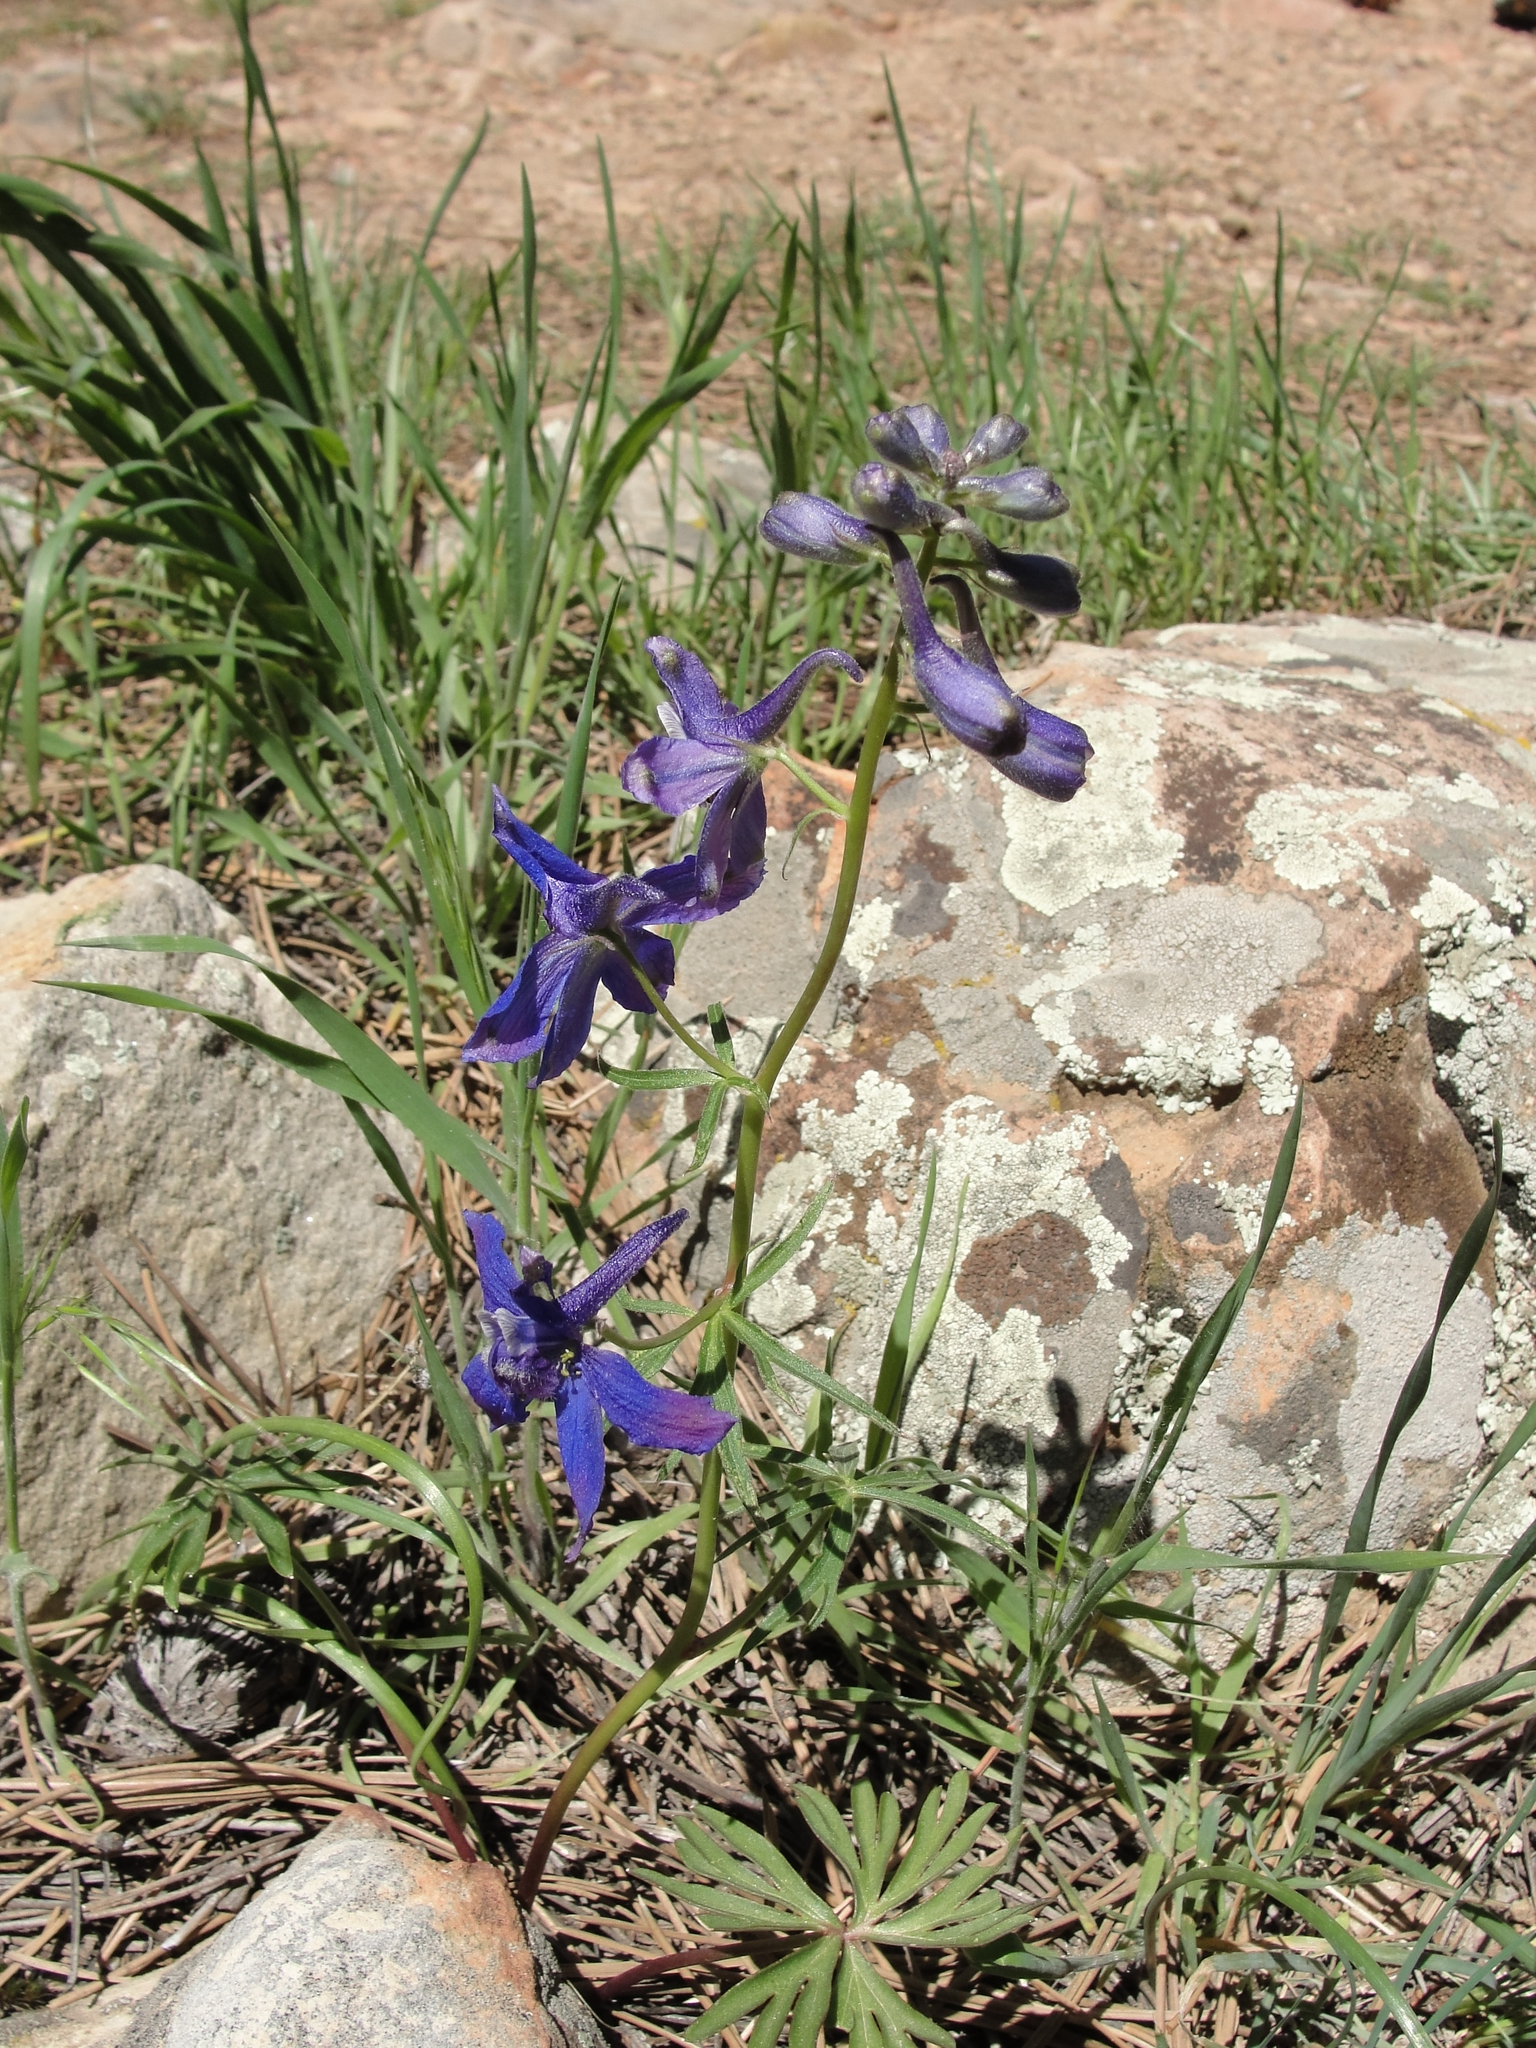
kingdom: Plantae
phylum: Tracheophyta
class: Magnoliopsida
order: Ranunculales
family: Ranunculaceae
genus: Delphinium
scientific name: Delphinium nuttallianum
